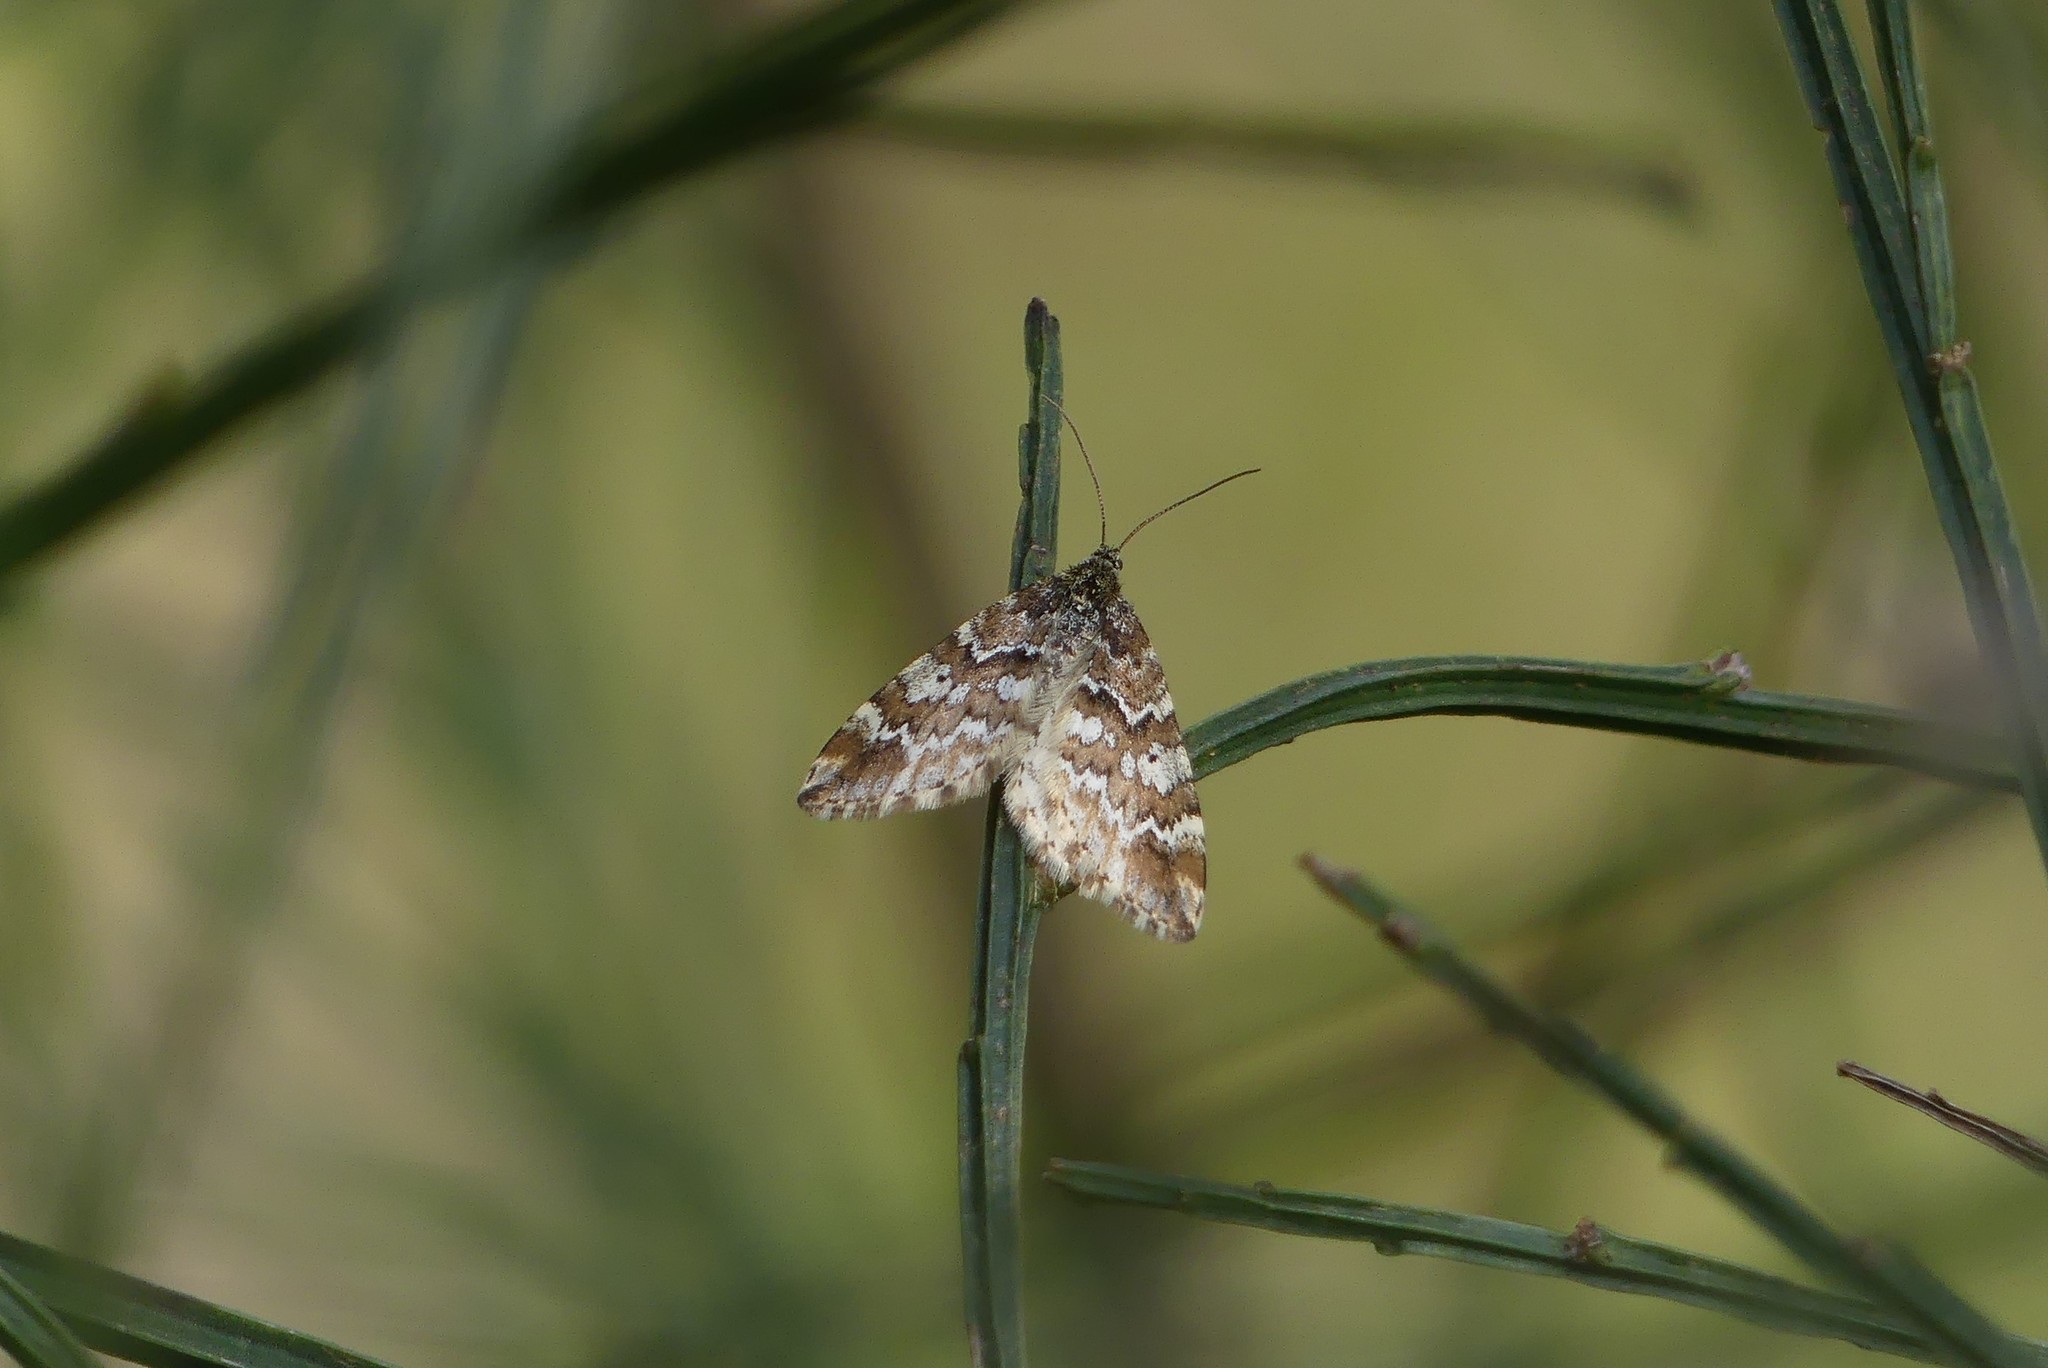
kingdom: Animalia
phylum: Arthropoda
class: Insecta
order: Lepidoptera
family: Geometridae
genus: Enchoria
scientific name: Enchoria lacteata
